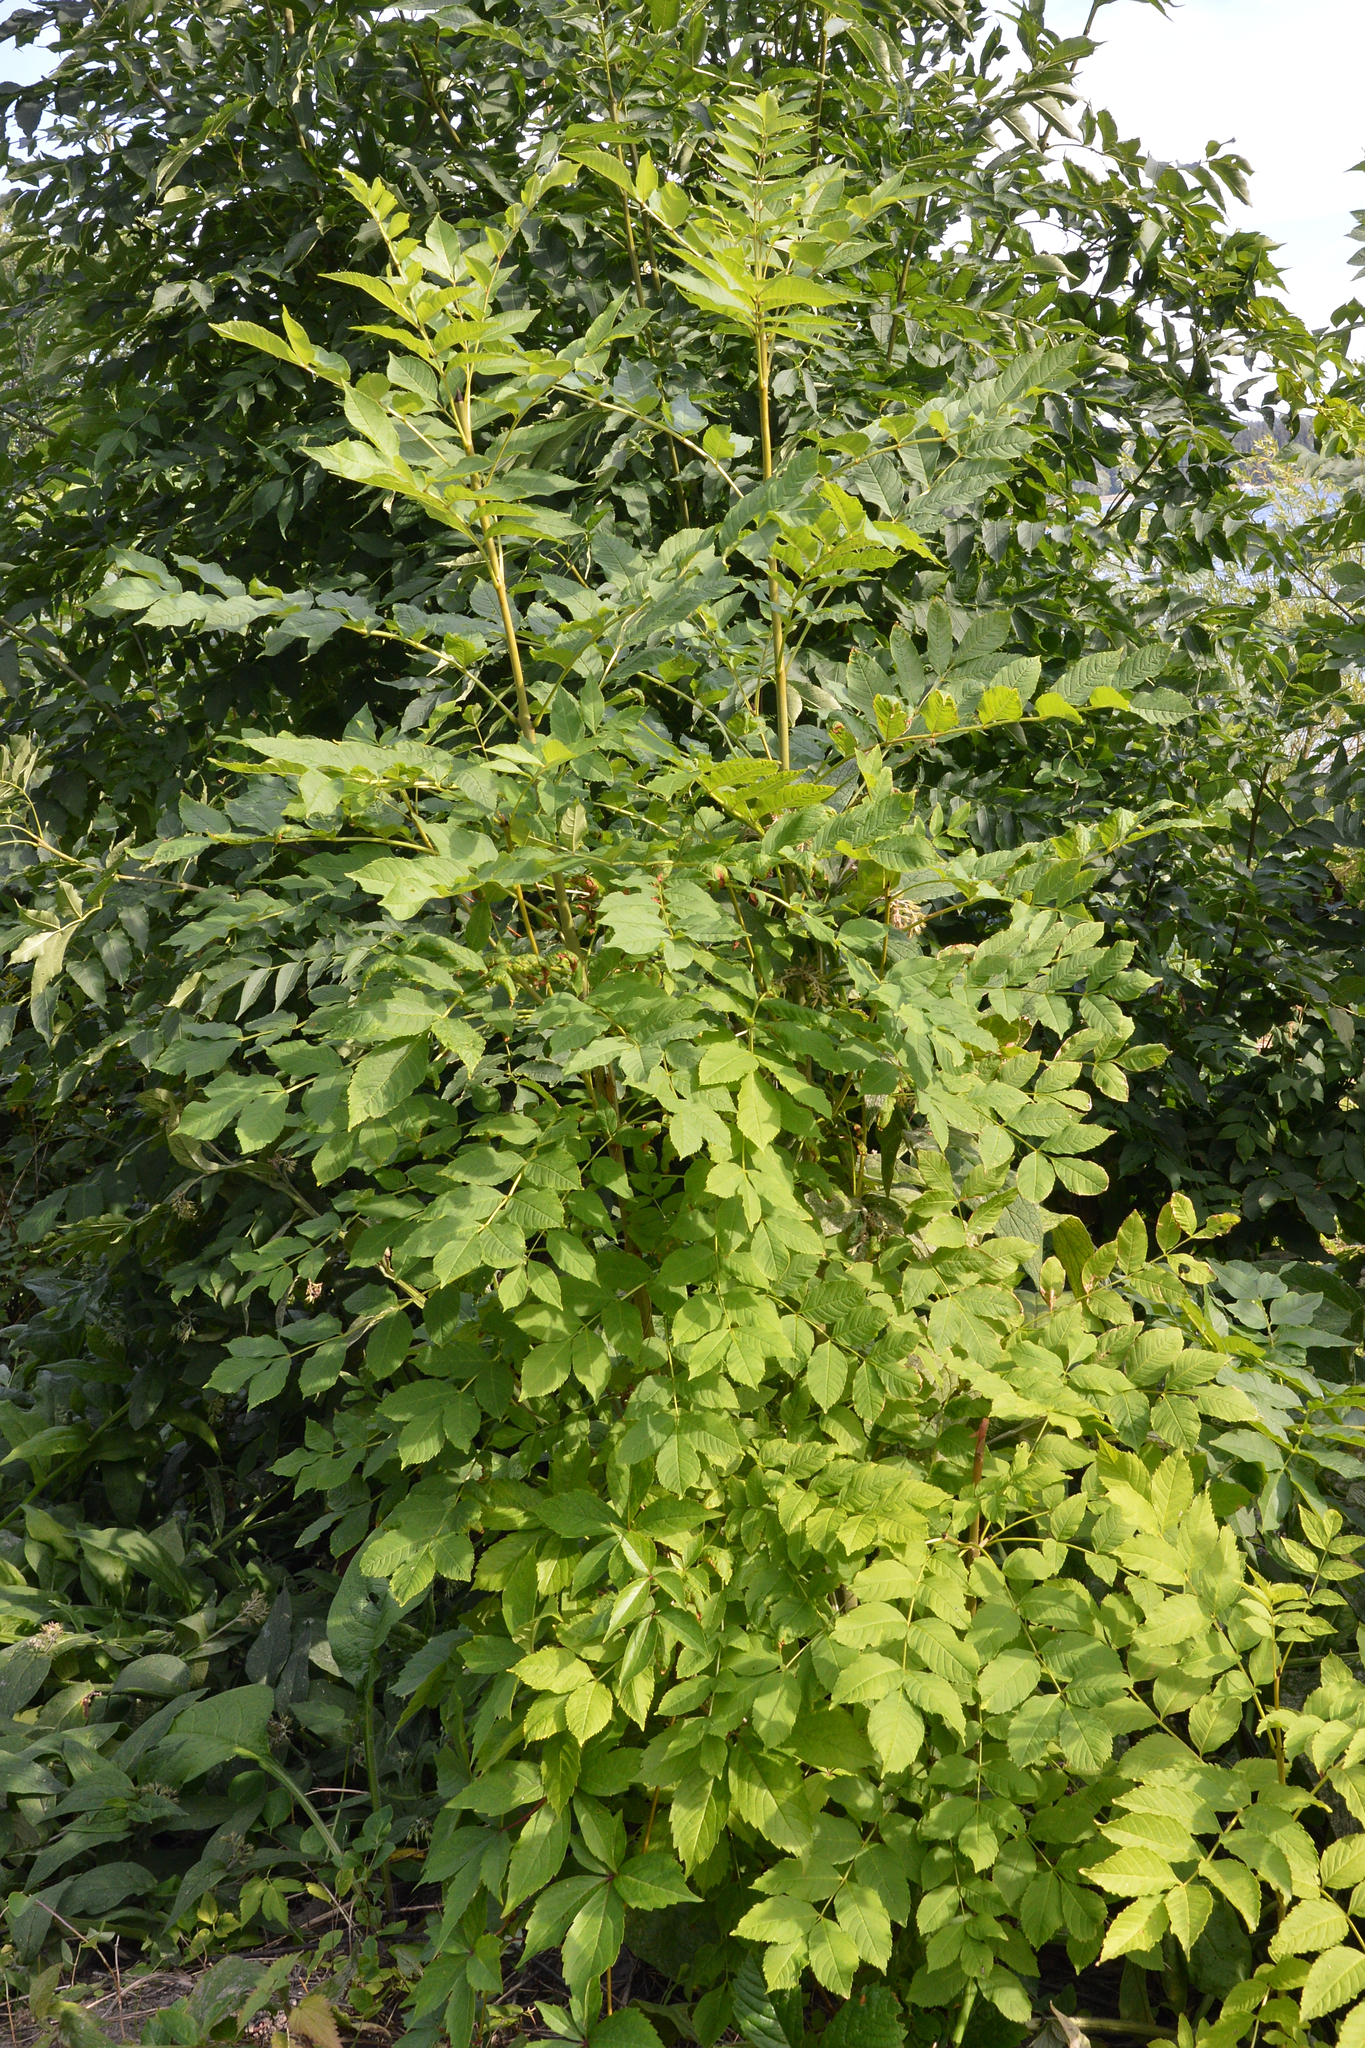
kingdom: Plantae
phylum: Tracheophyta
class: Magnoliopsida
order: Lamiales
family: Oleaceae
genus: Fraxinus
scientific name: Fraxinus excelsior
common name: European ash
